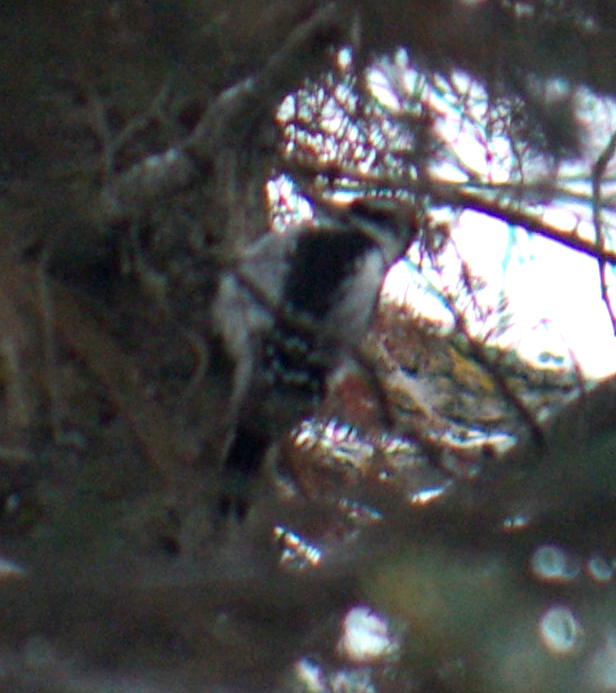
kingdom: Animalia
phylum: Chordata
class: Aves
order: Piciformes
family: Picidae
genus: Leuconotopicus
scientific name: Leuconotopicus villosus
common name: Hairy woodpecker
